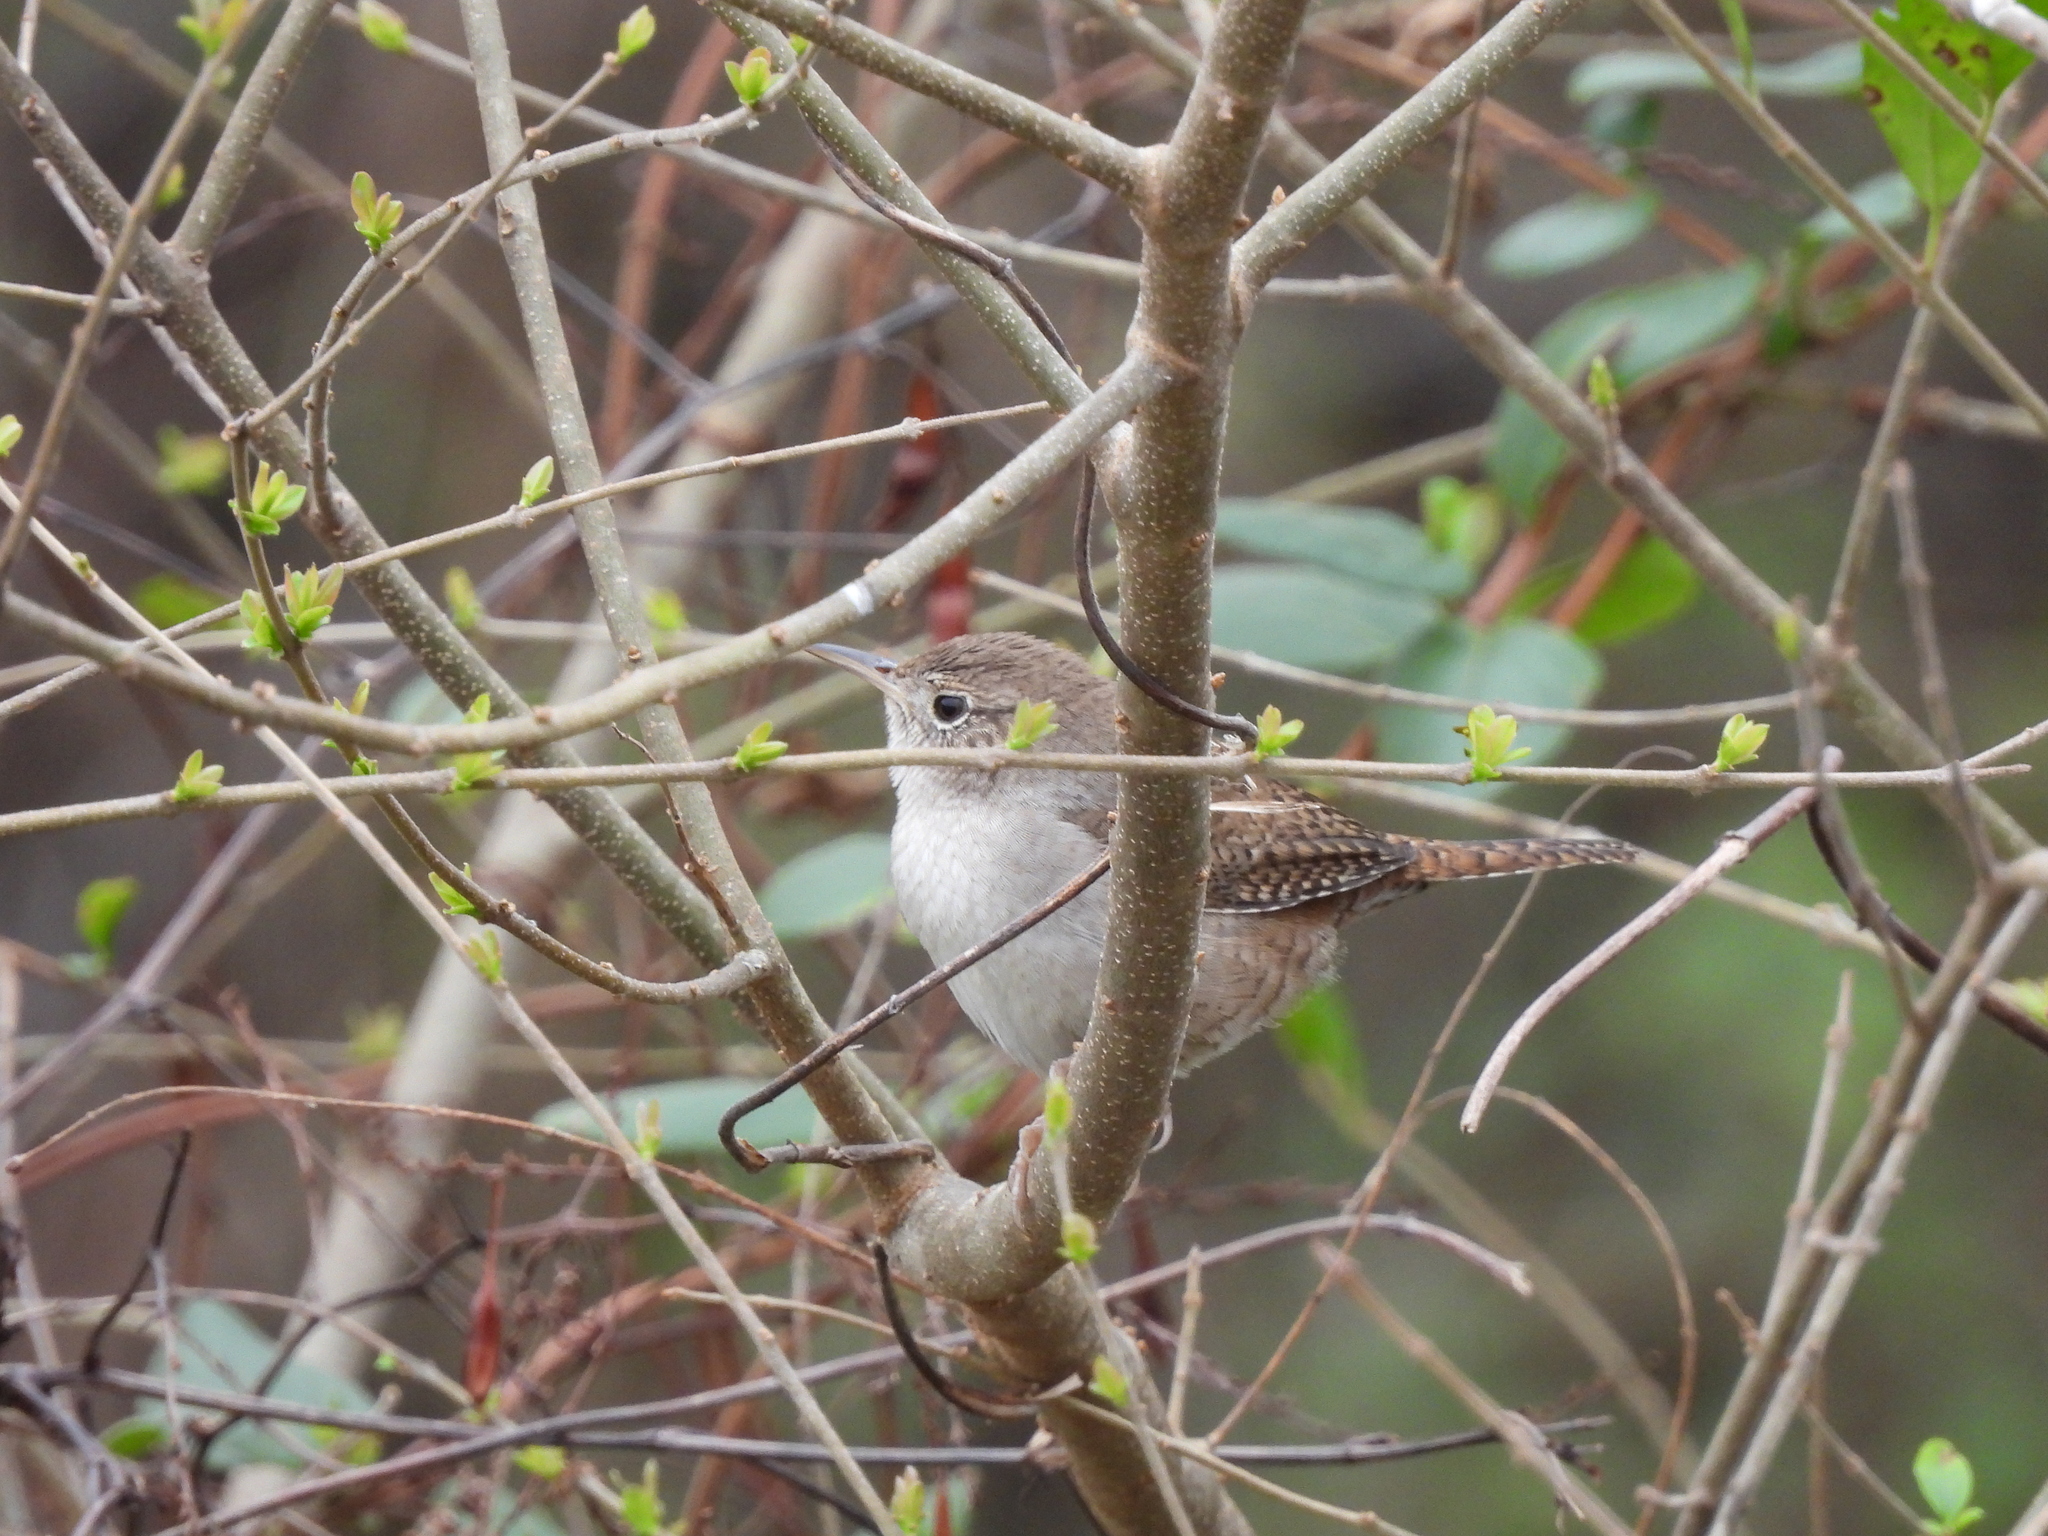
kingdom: Animalia
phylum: Chordata
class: Aves
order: Passeriformes
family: Troglodytidae
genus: Troglodytes
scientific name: Troglodytes aedon
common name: House wren
